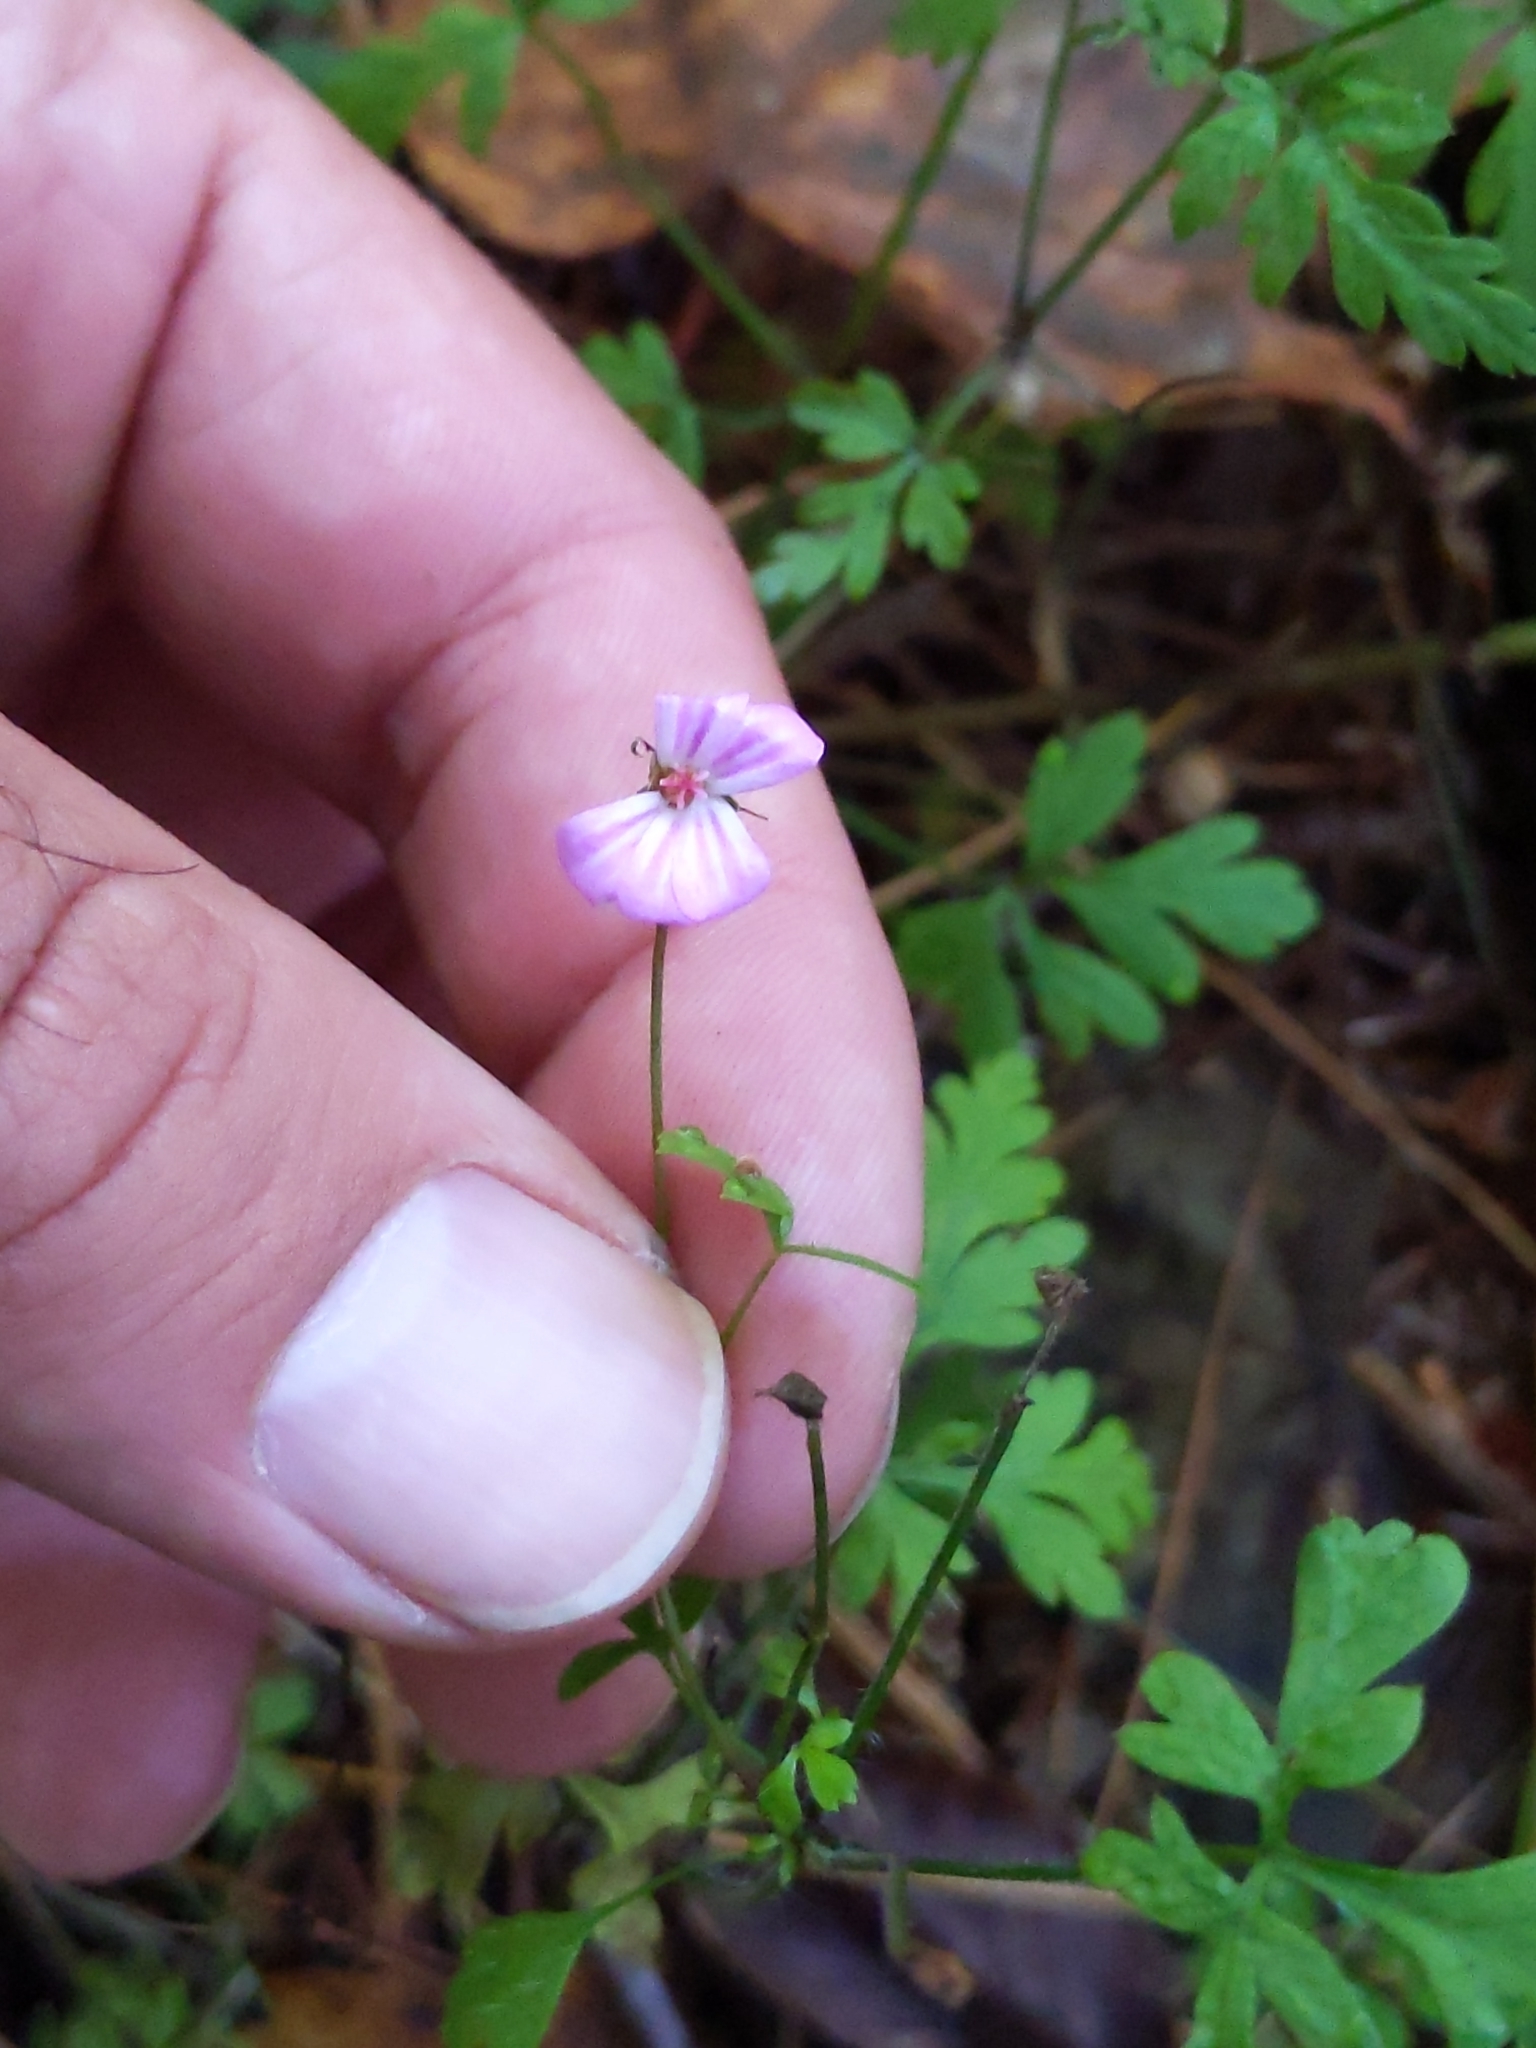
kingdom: Plantae
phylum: Tracheophyta
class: Magnoliopsida
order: Geraniales
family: Geraniaceae
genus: Geranium
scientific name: Geranium robertianum
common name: Herb-robert
